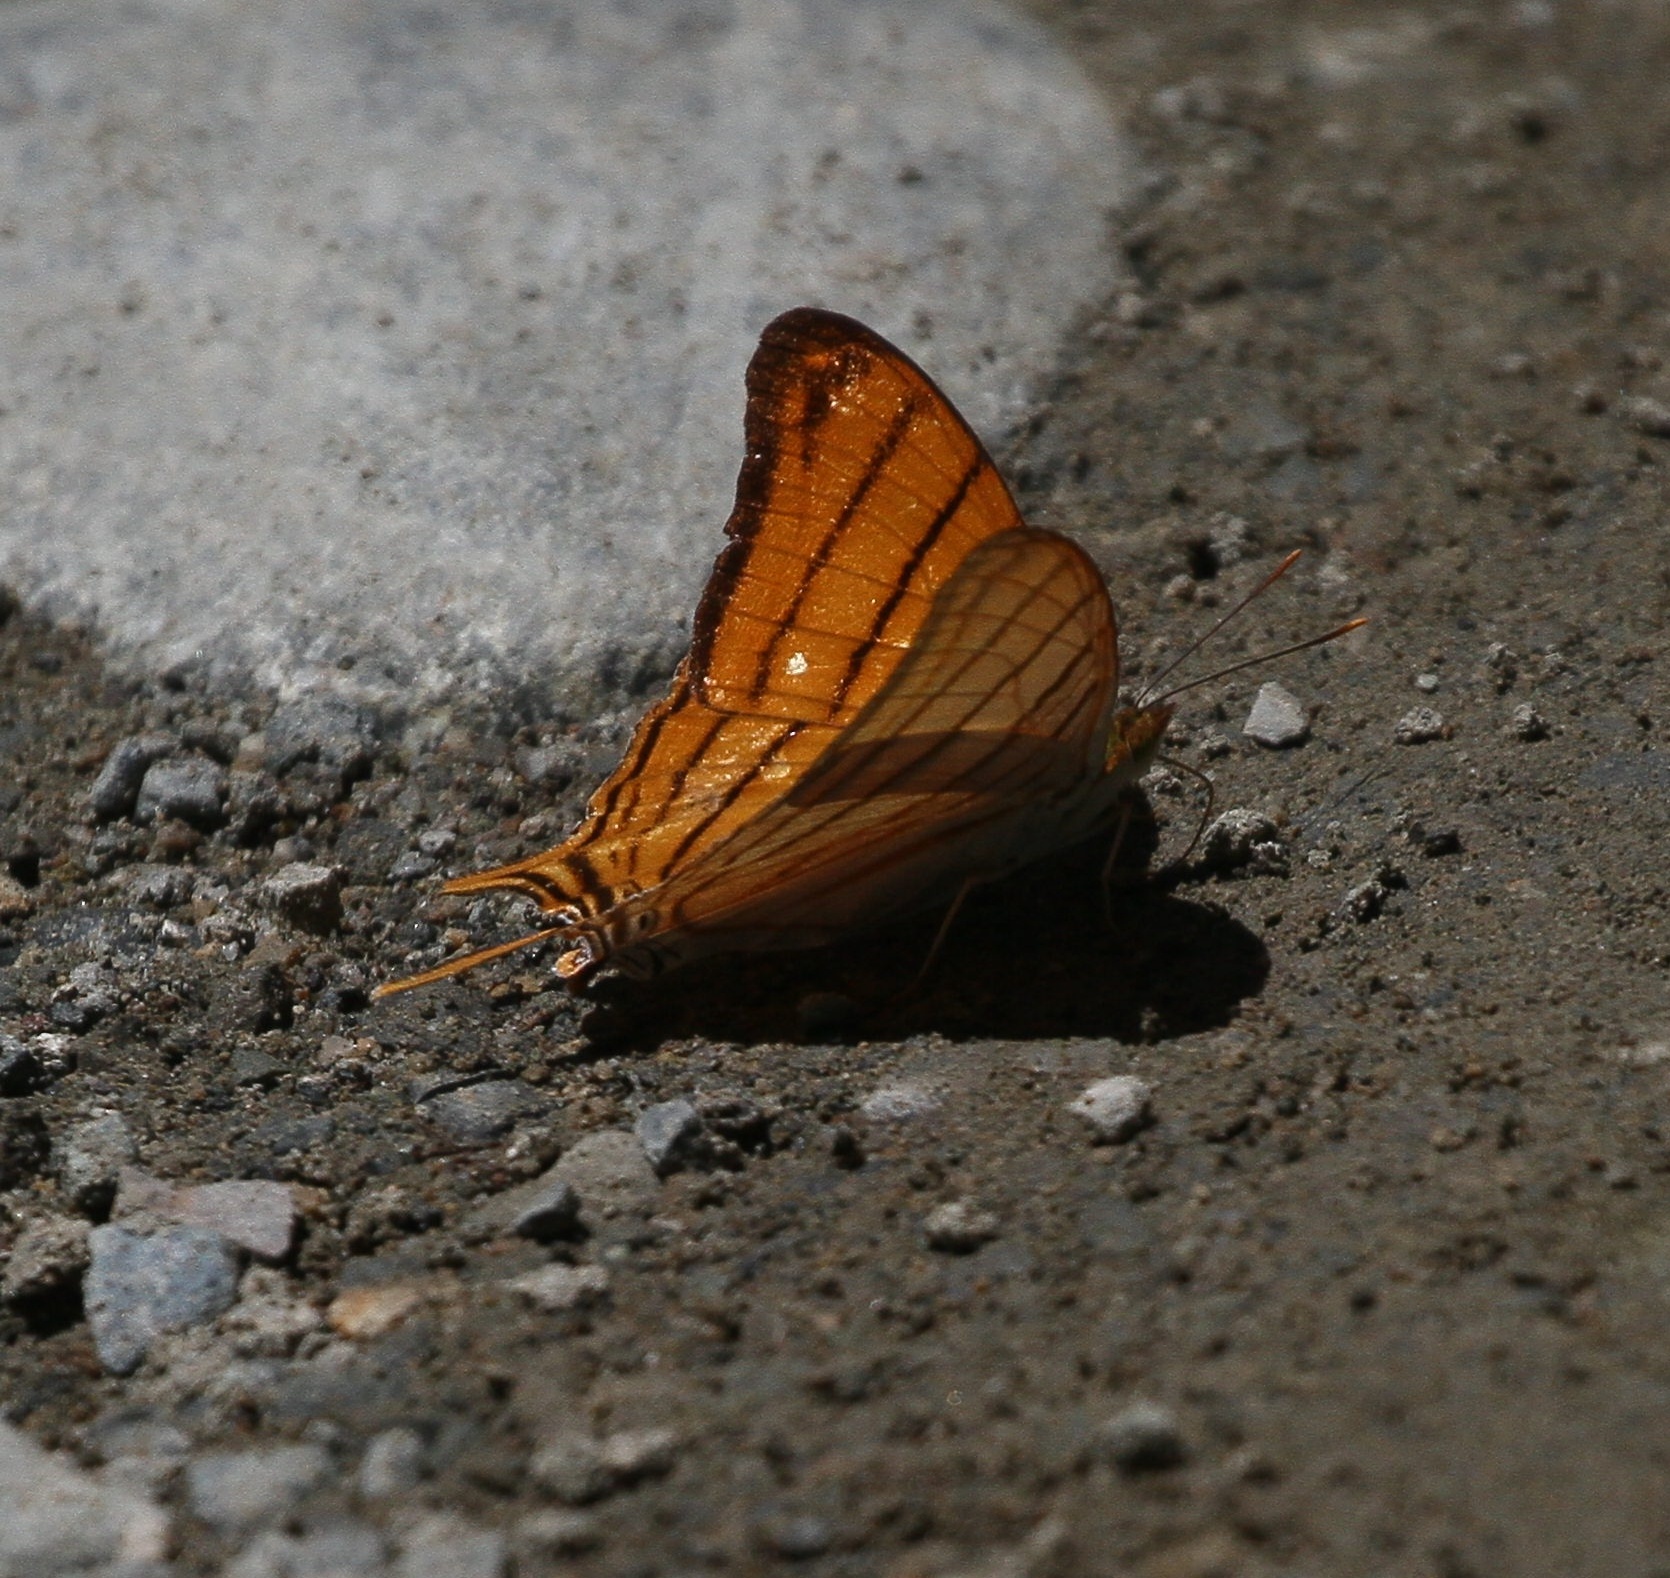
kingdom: Animalia
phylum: Arthropoda
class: Insecta
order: Lepidoptera
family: Nymphalidae
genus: Marpesia
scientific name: Marpesia berania
